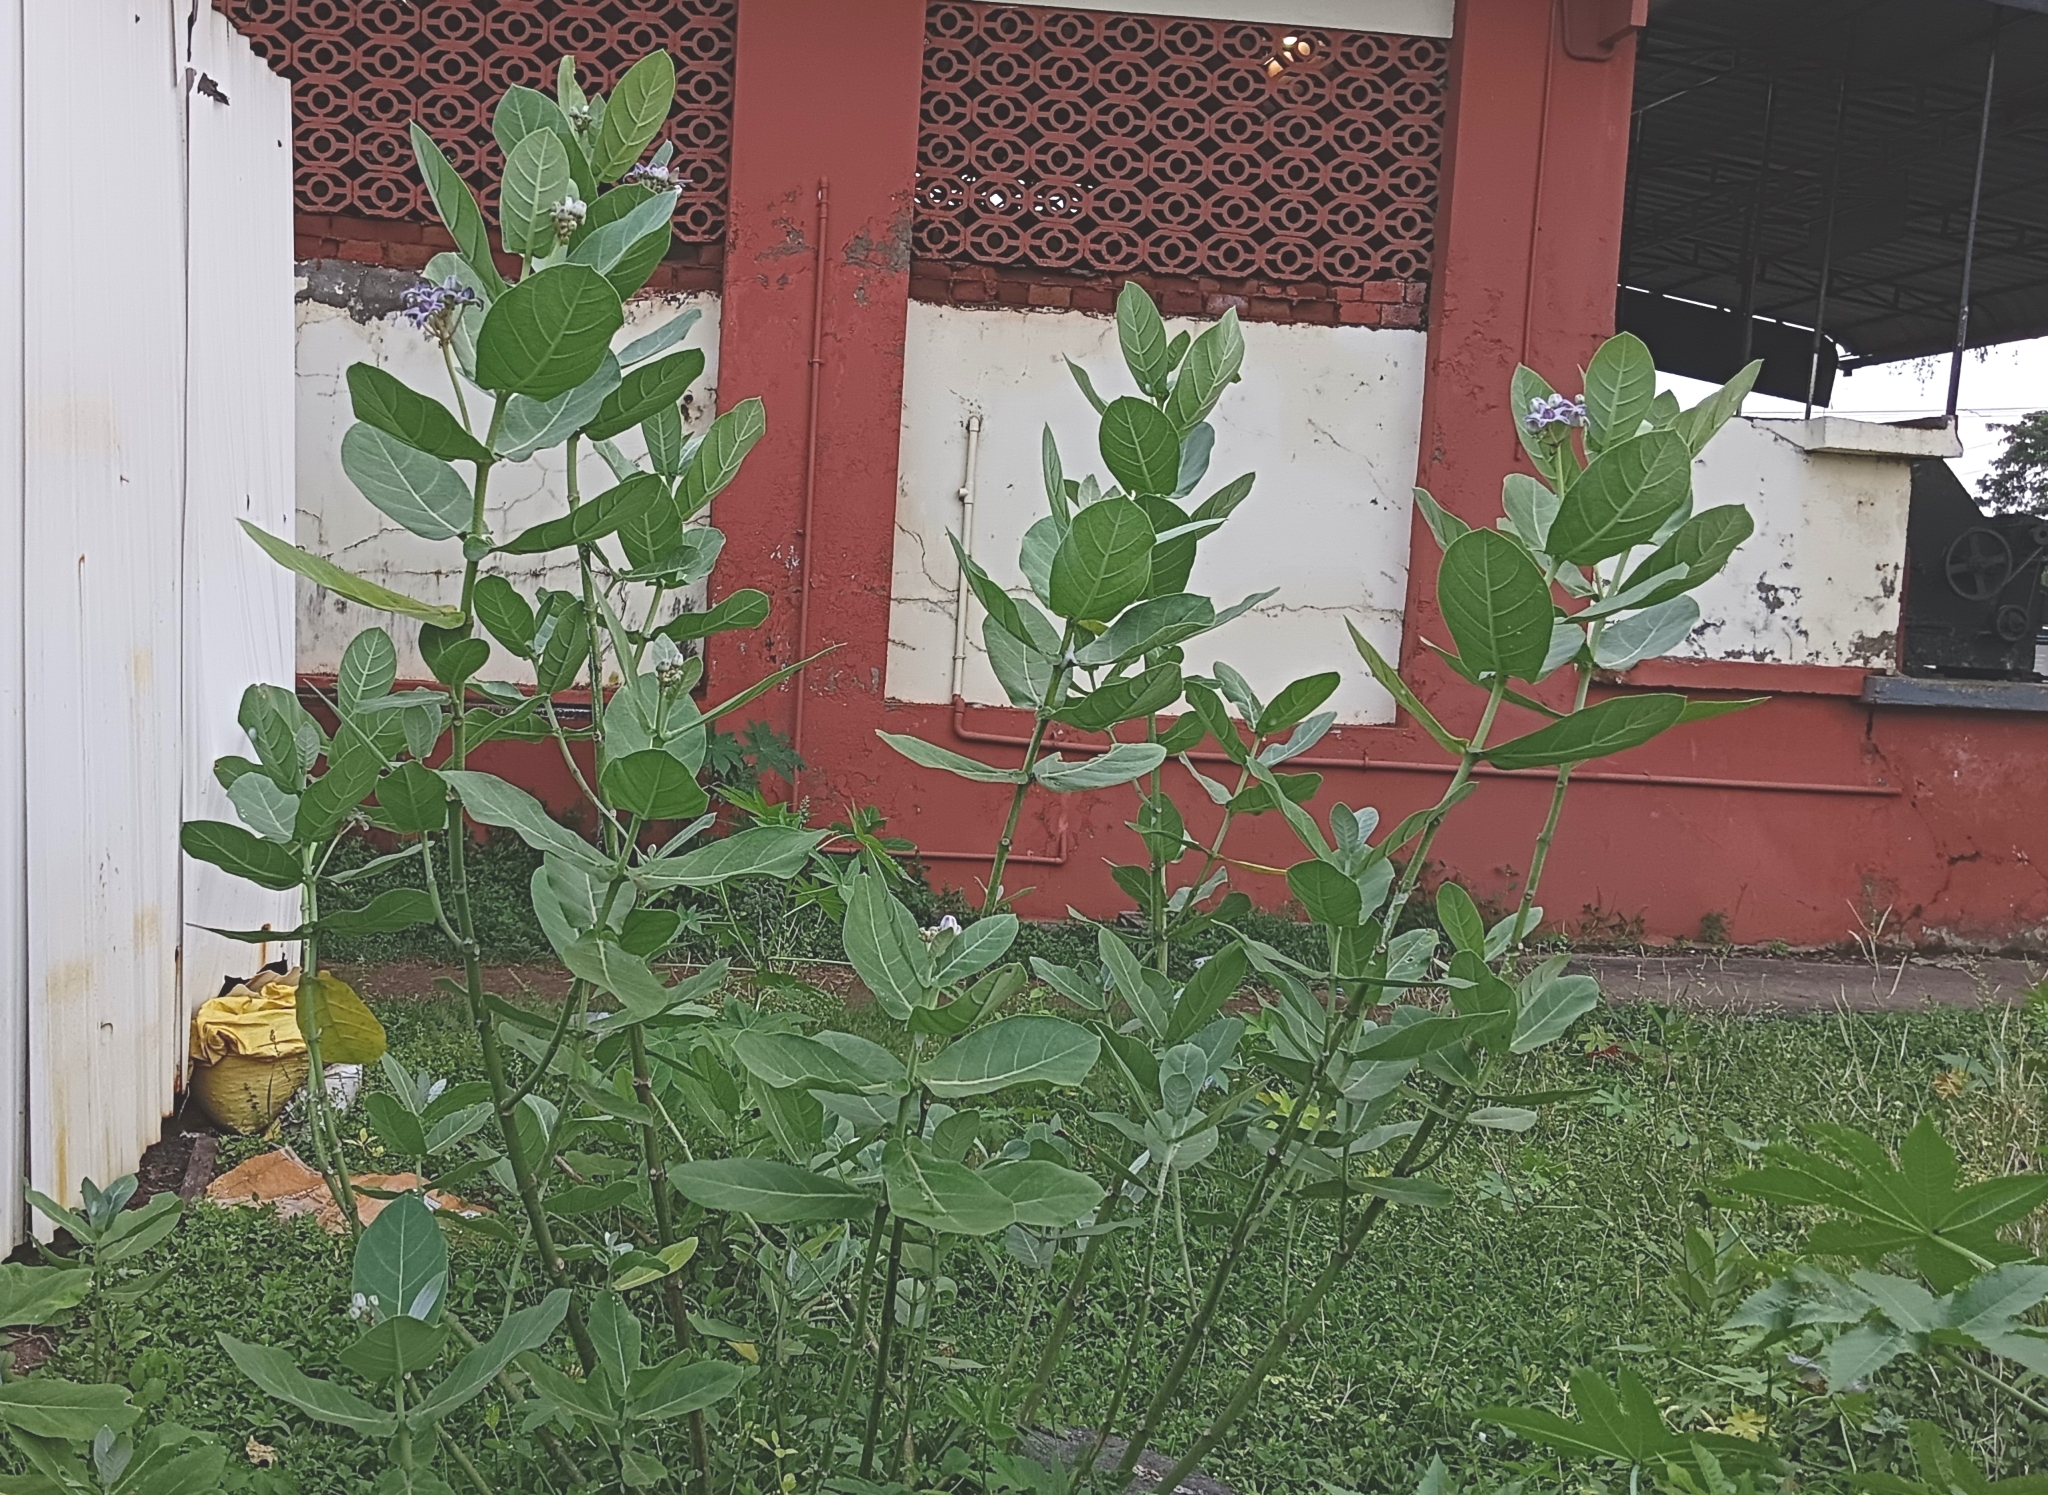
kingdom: Plantae
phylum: Tracheophyta
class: Magnoliopsida
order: Gentianales
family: Apocynaceae
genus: Calotropis
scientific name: Calotropis gigantea
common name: Crown flower
